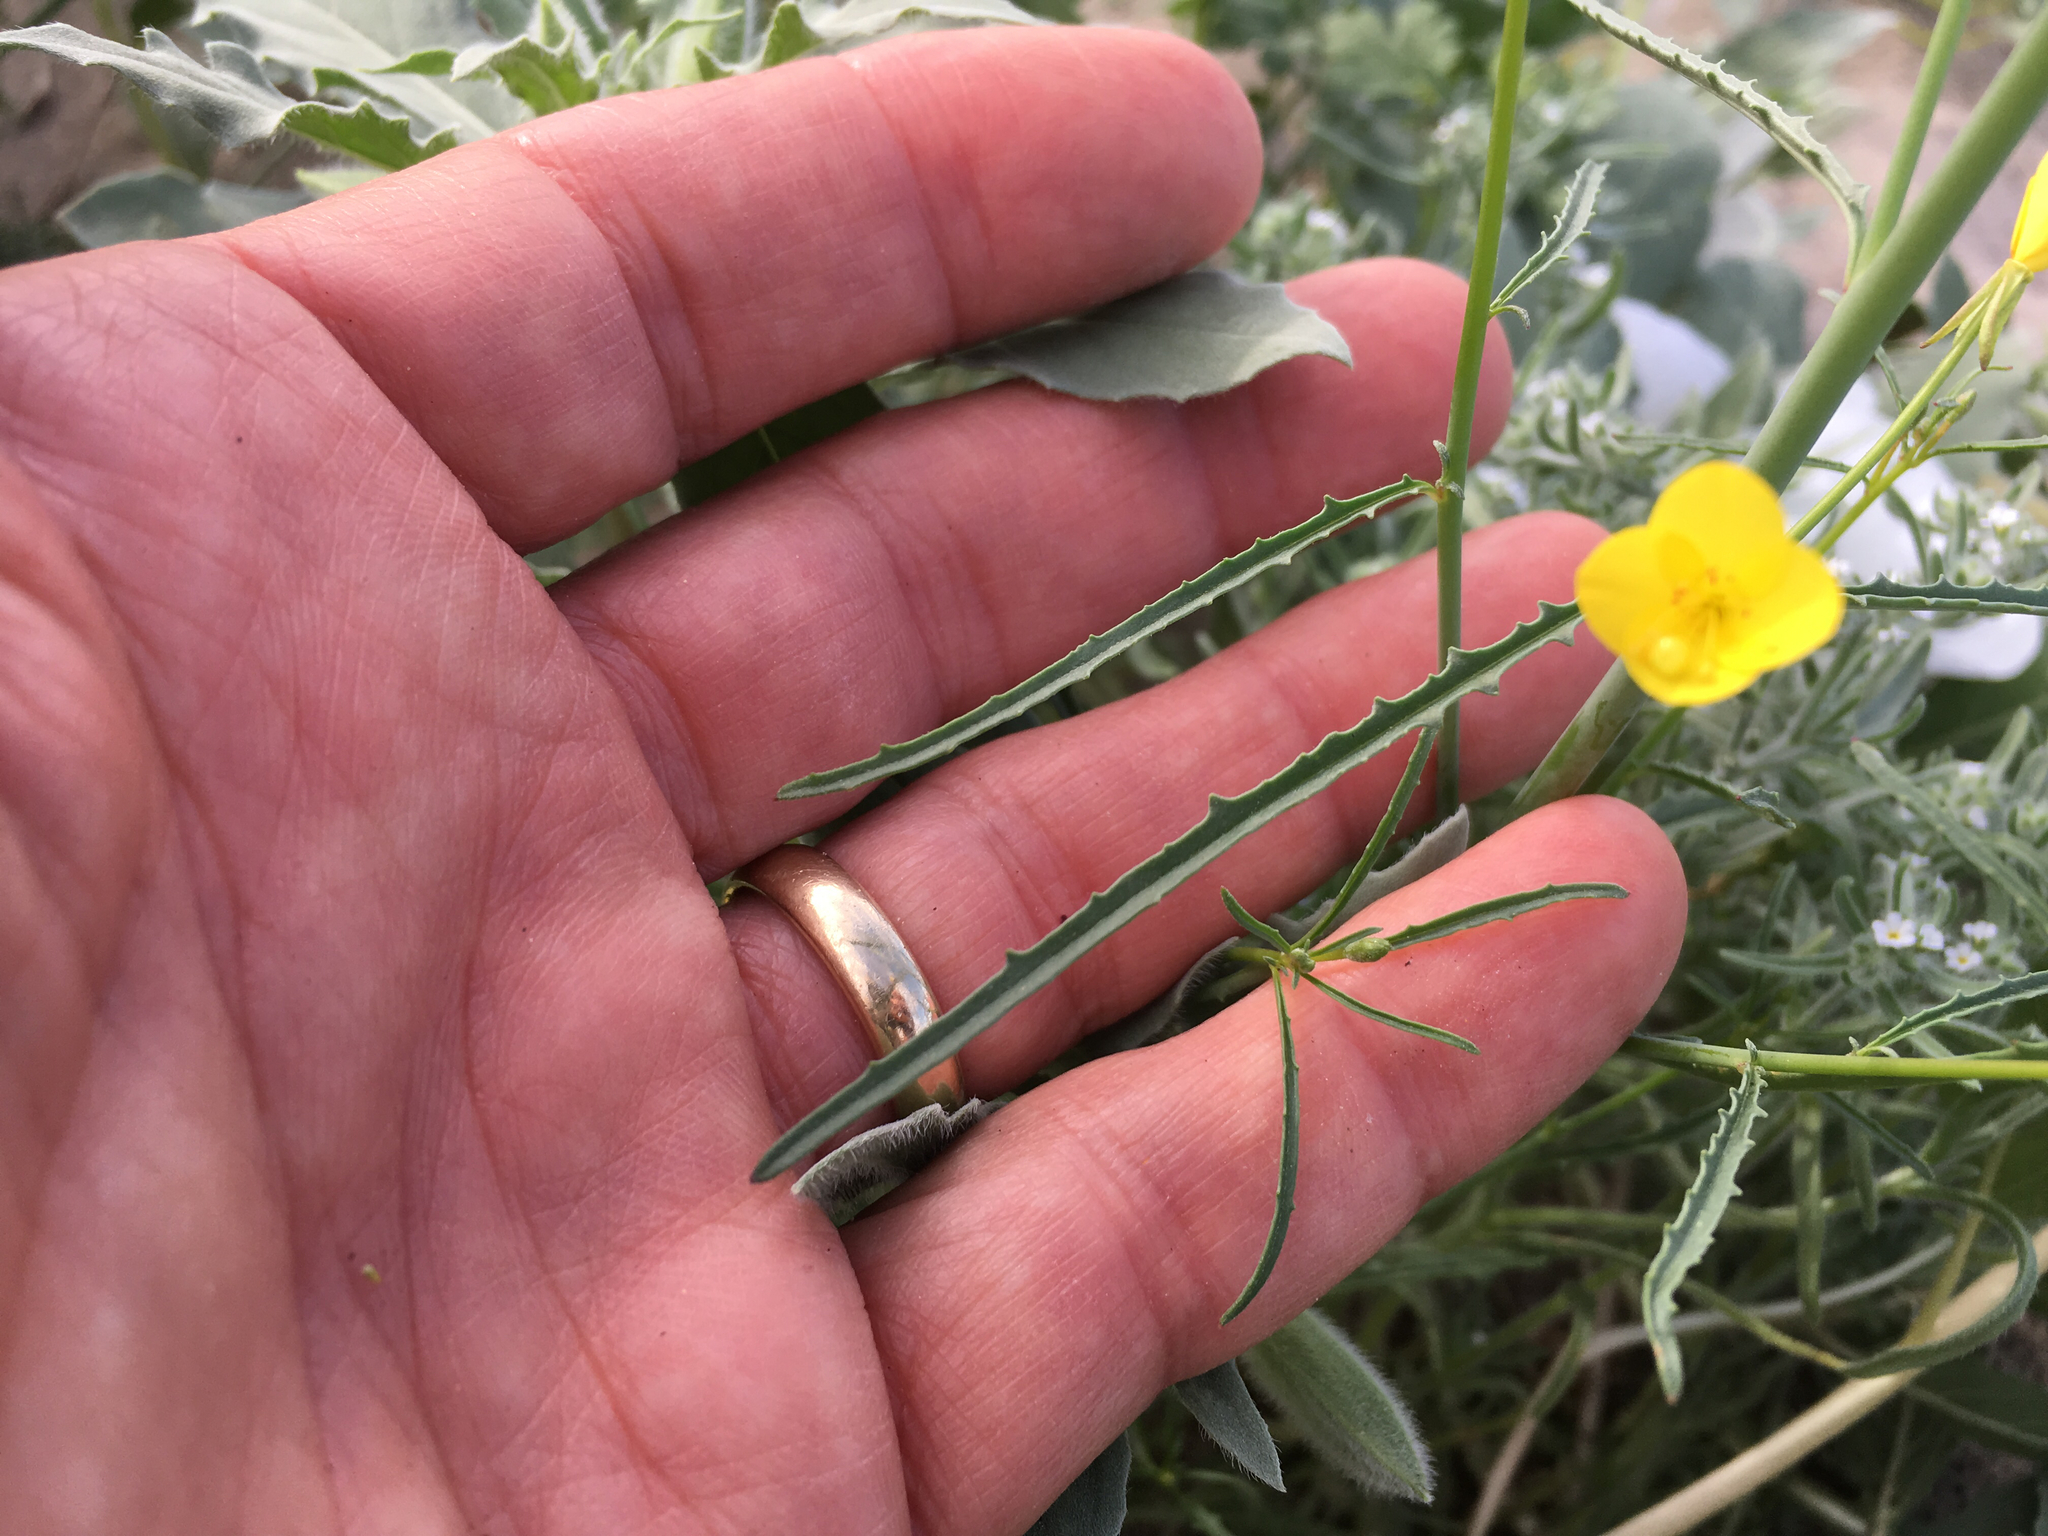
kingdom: Plantae
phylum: Tracheophyta
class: Magnoliopsida
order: Myrtales
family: Onagraceae
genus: Eulobus
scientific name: Eulobus californicus
